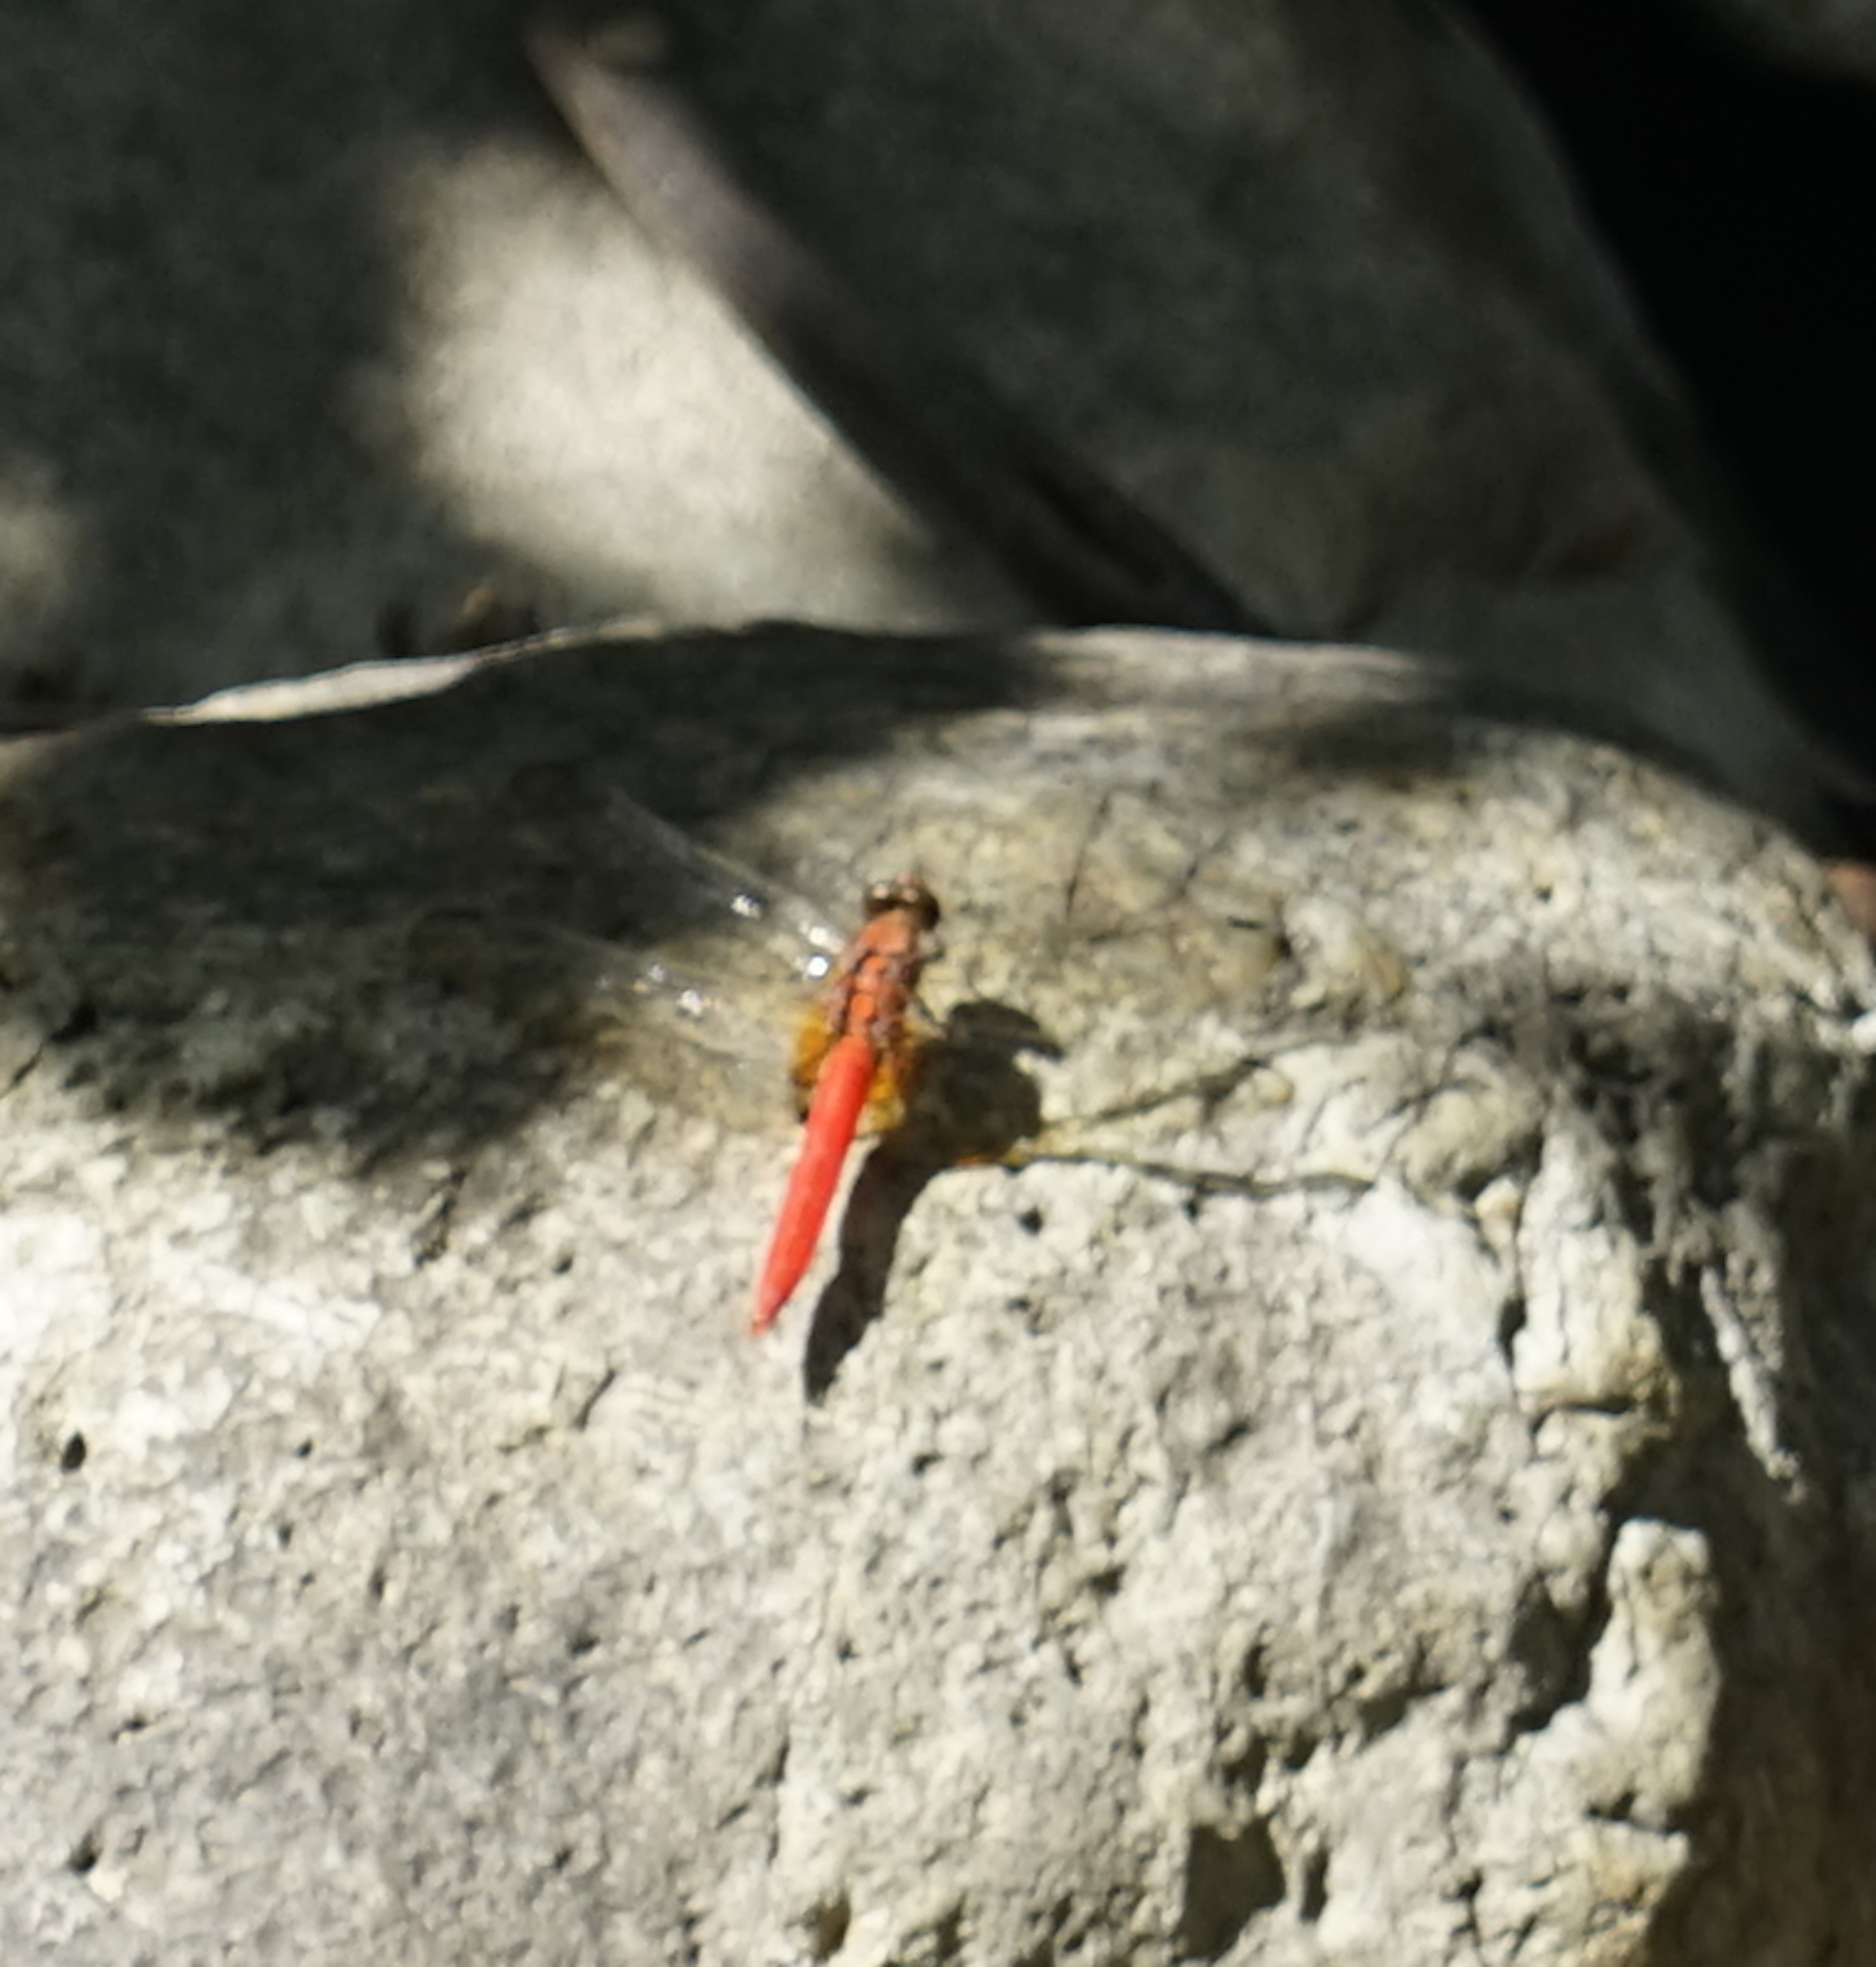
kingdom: Animalia
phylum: Arthropoda
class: Insecta
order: Odonata
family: Libellulidae
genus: Orthetrum
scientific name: Orthetrum testaceum
